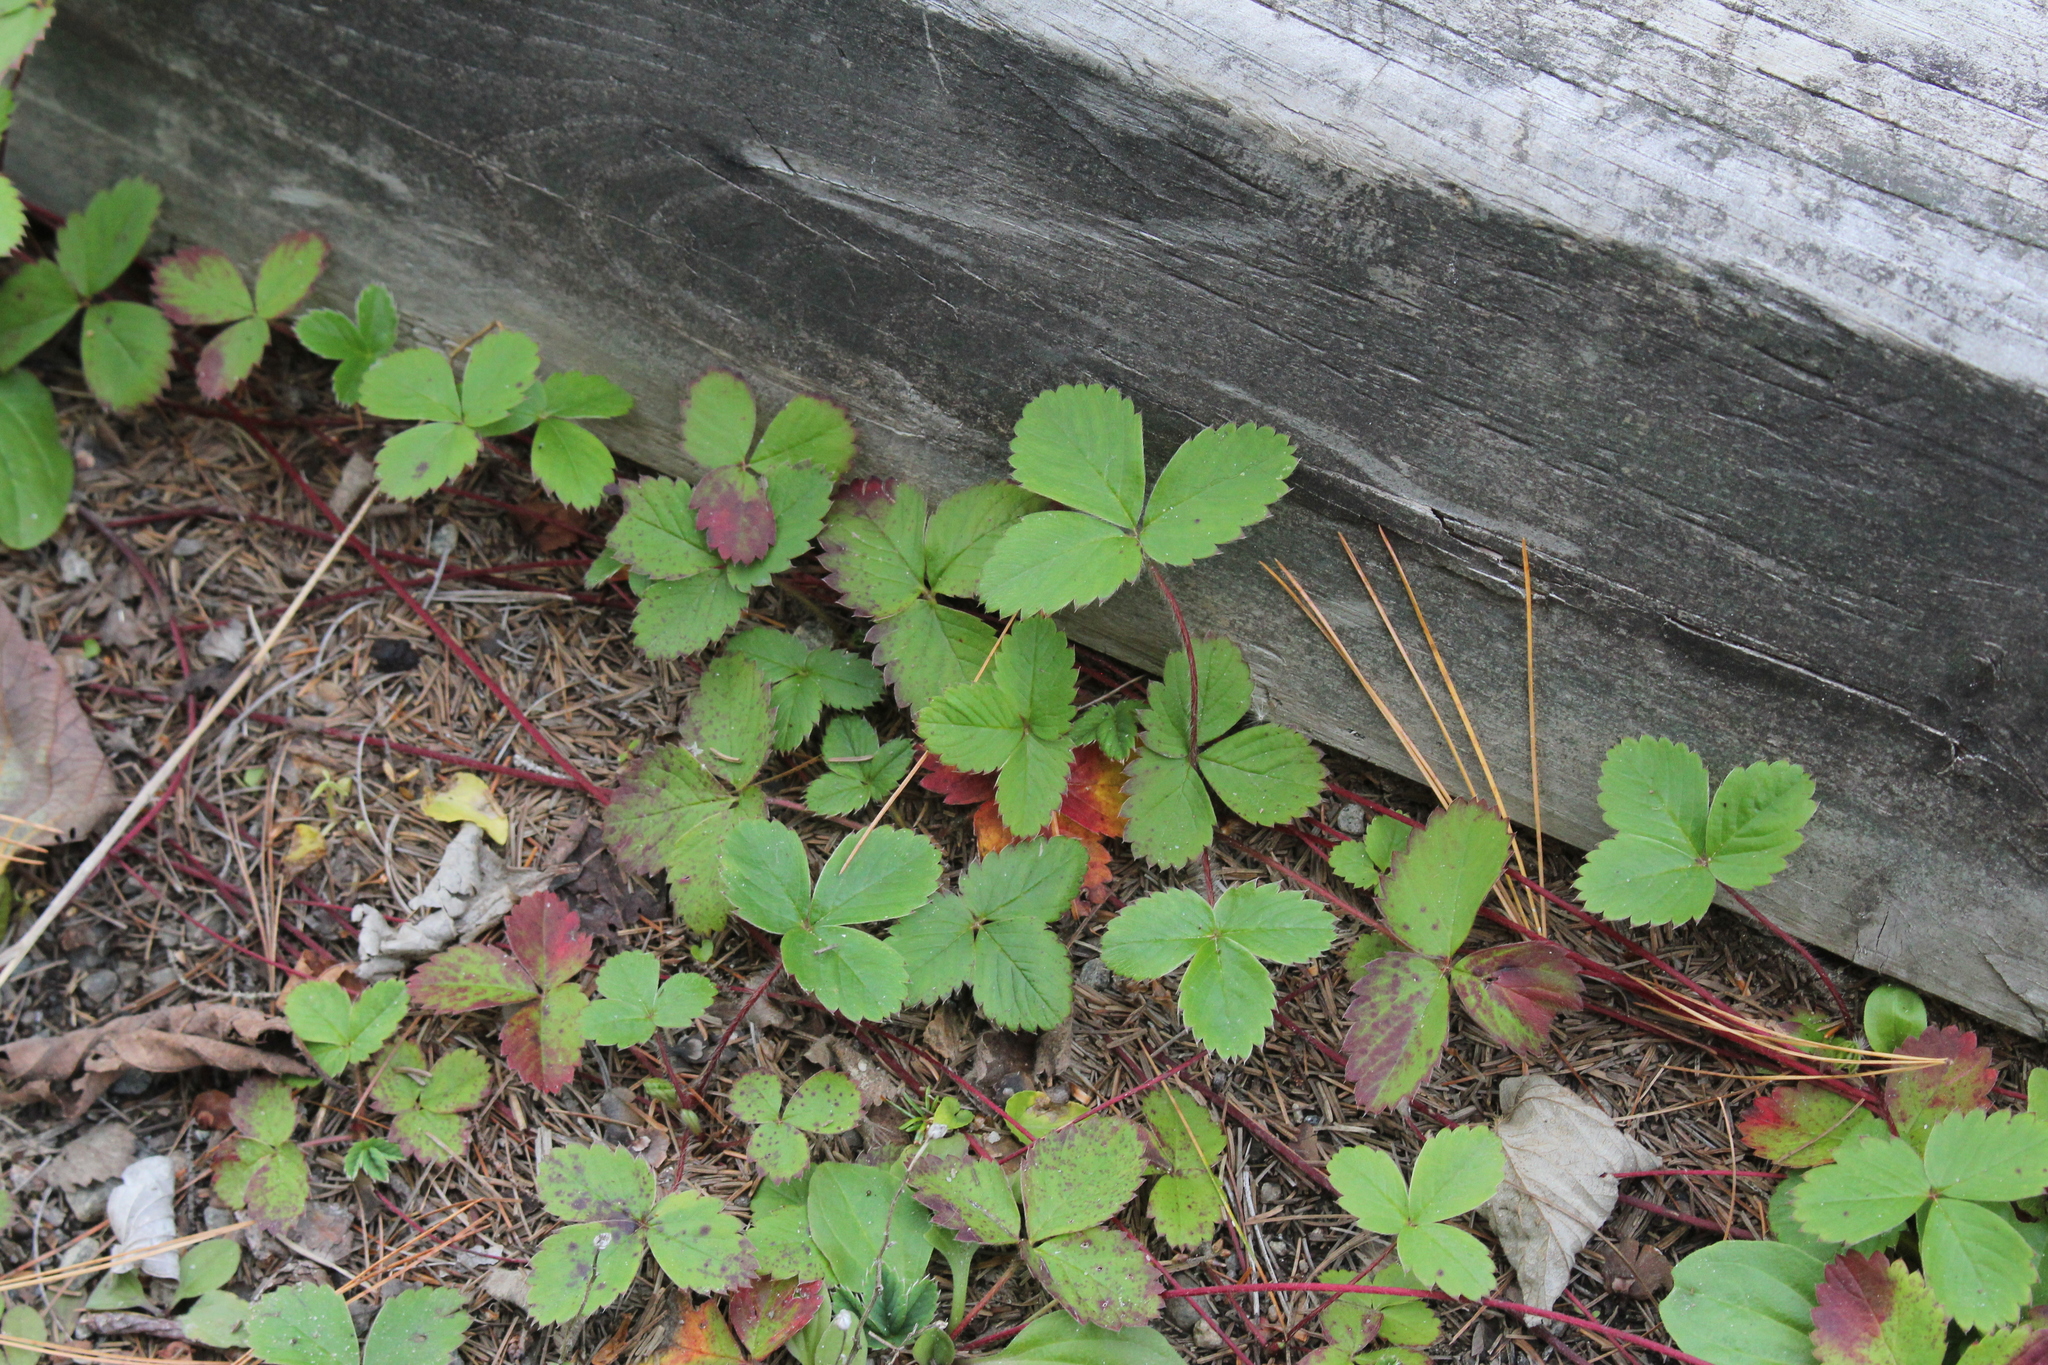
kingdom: Plantae
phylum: Tracheophyta
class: Magnoliopsida
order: Rosales
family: Rosaceae
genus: Fragaria
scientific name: Fragaria virginiana
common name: Thickleaved wild strawberry
